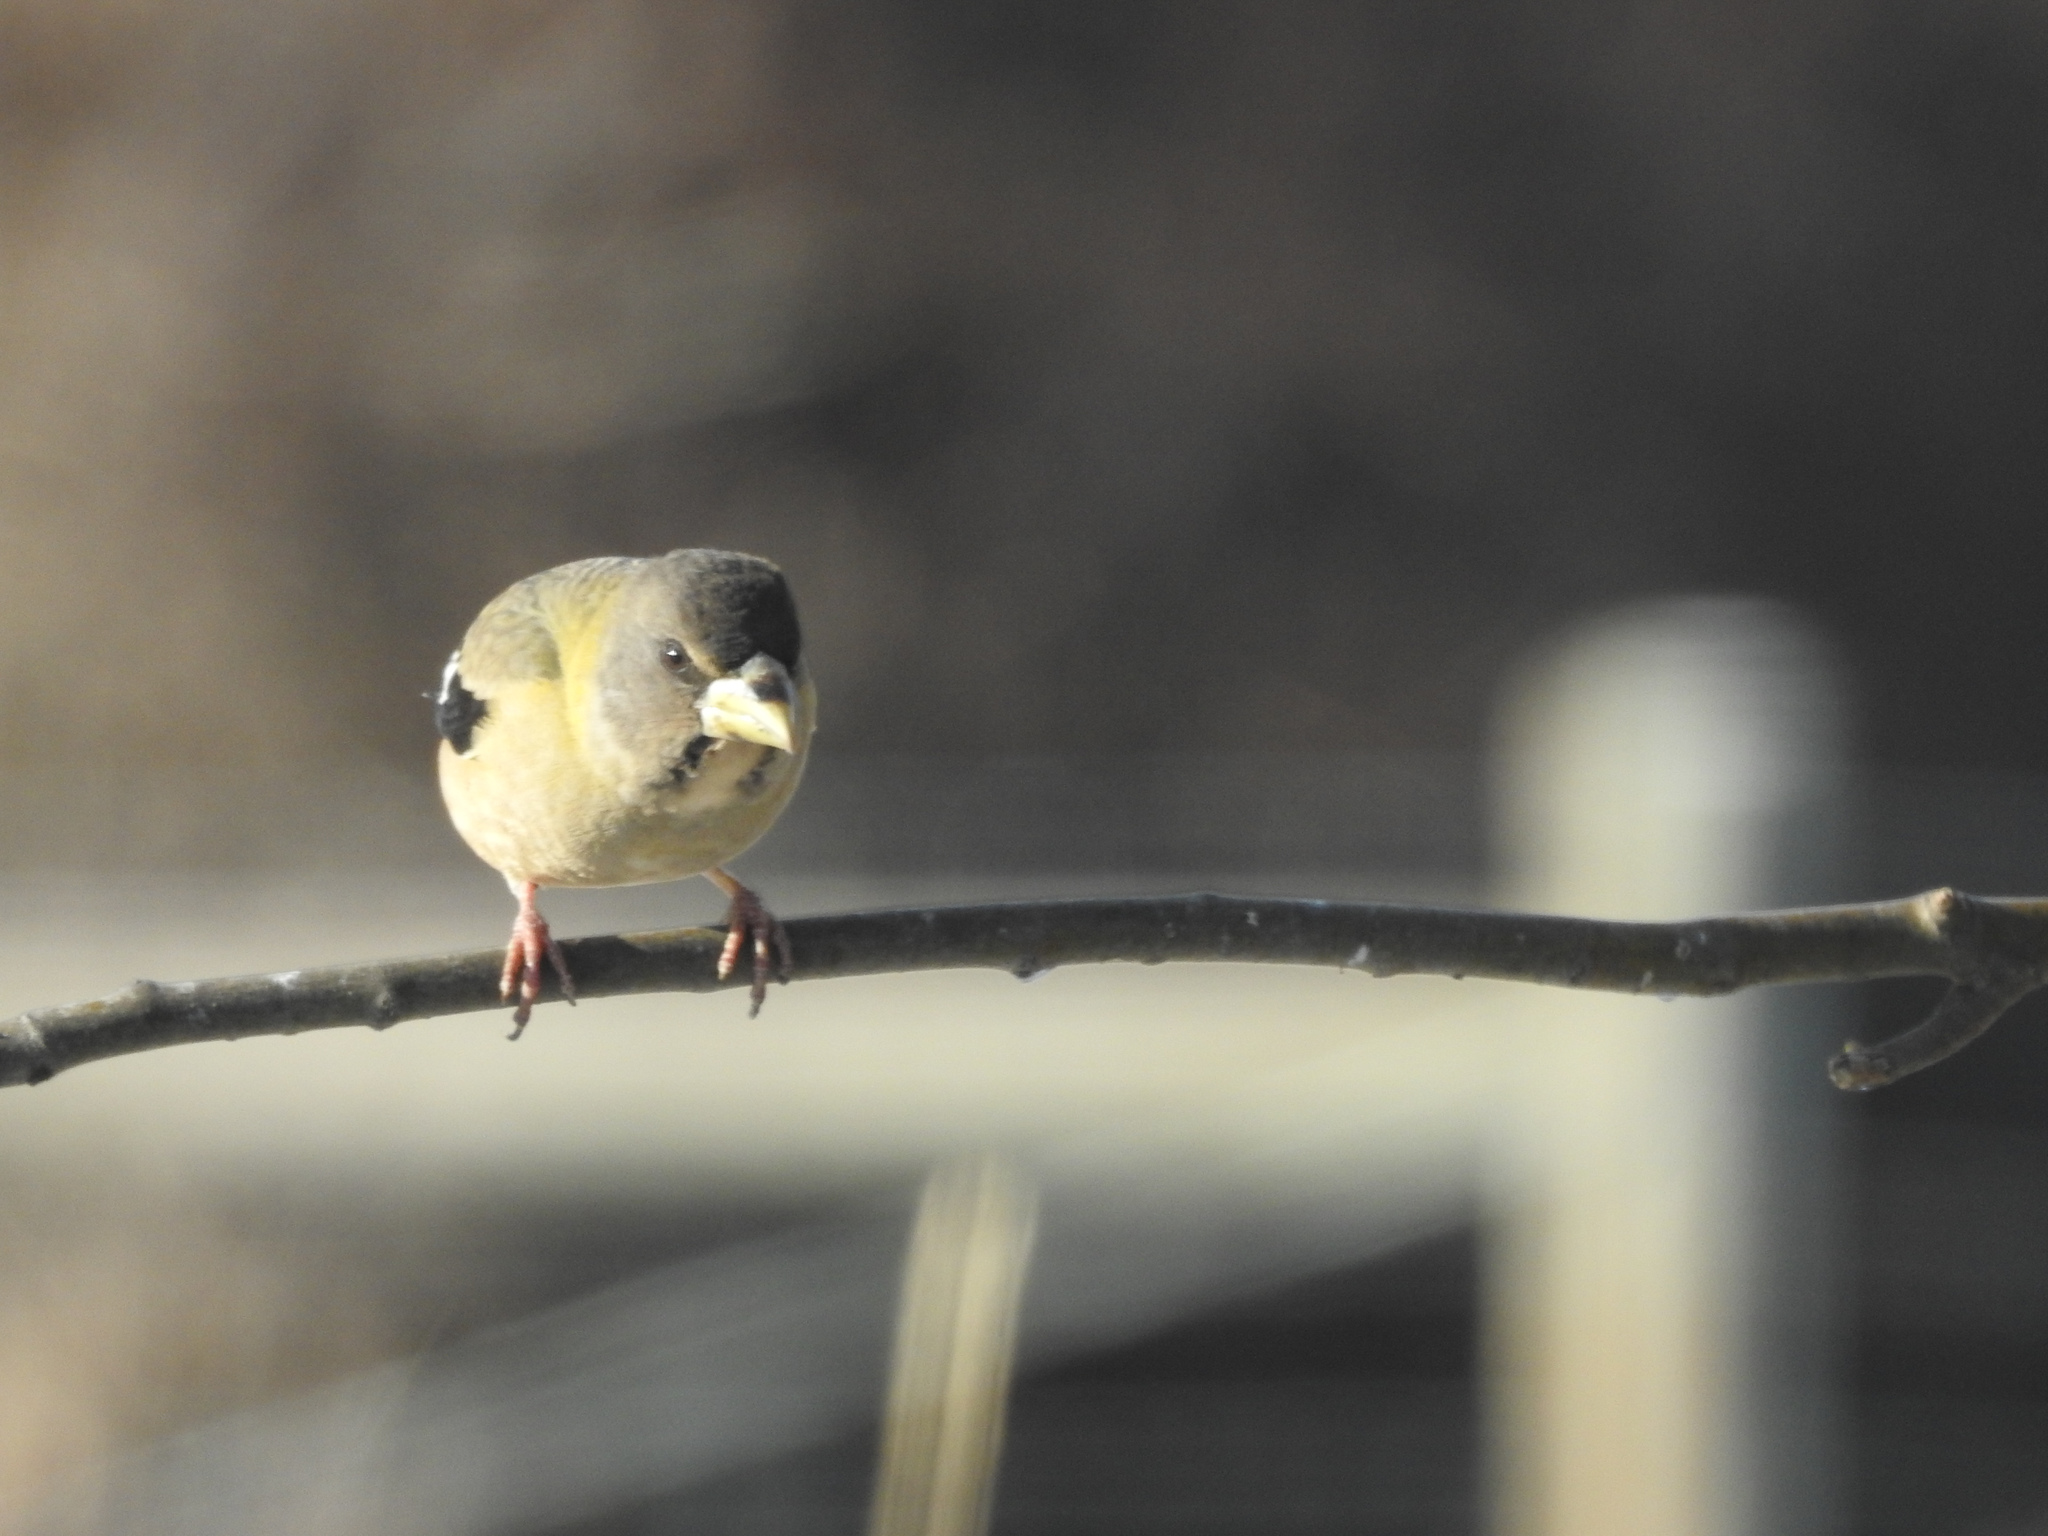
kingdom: Animalia
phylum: Chordata
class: Aves
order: Passeriformes
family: Fringillidae
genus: Hesperiphona
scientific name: Hesperiphona vespertina
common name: Evening grosbeak
